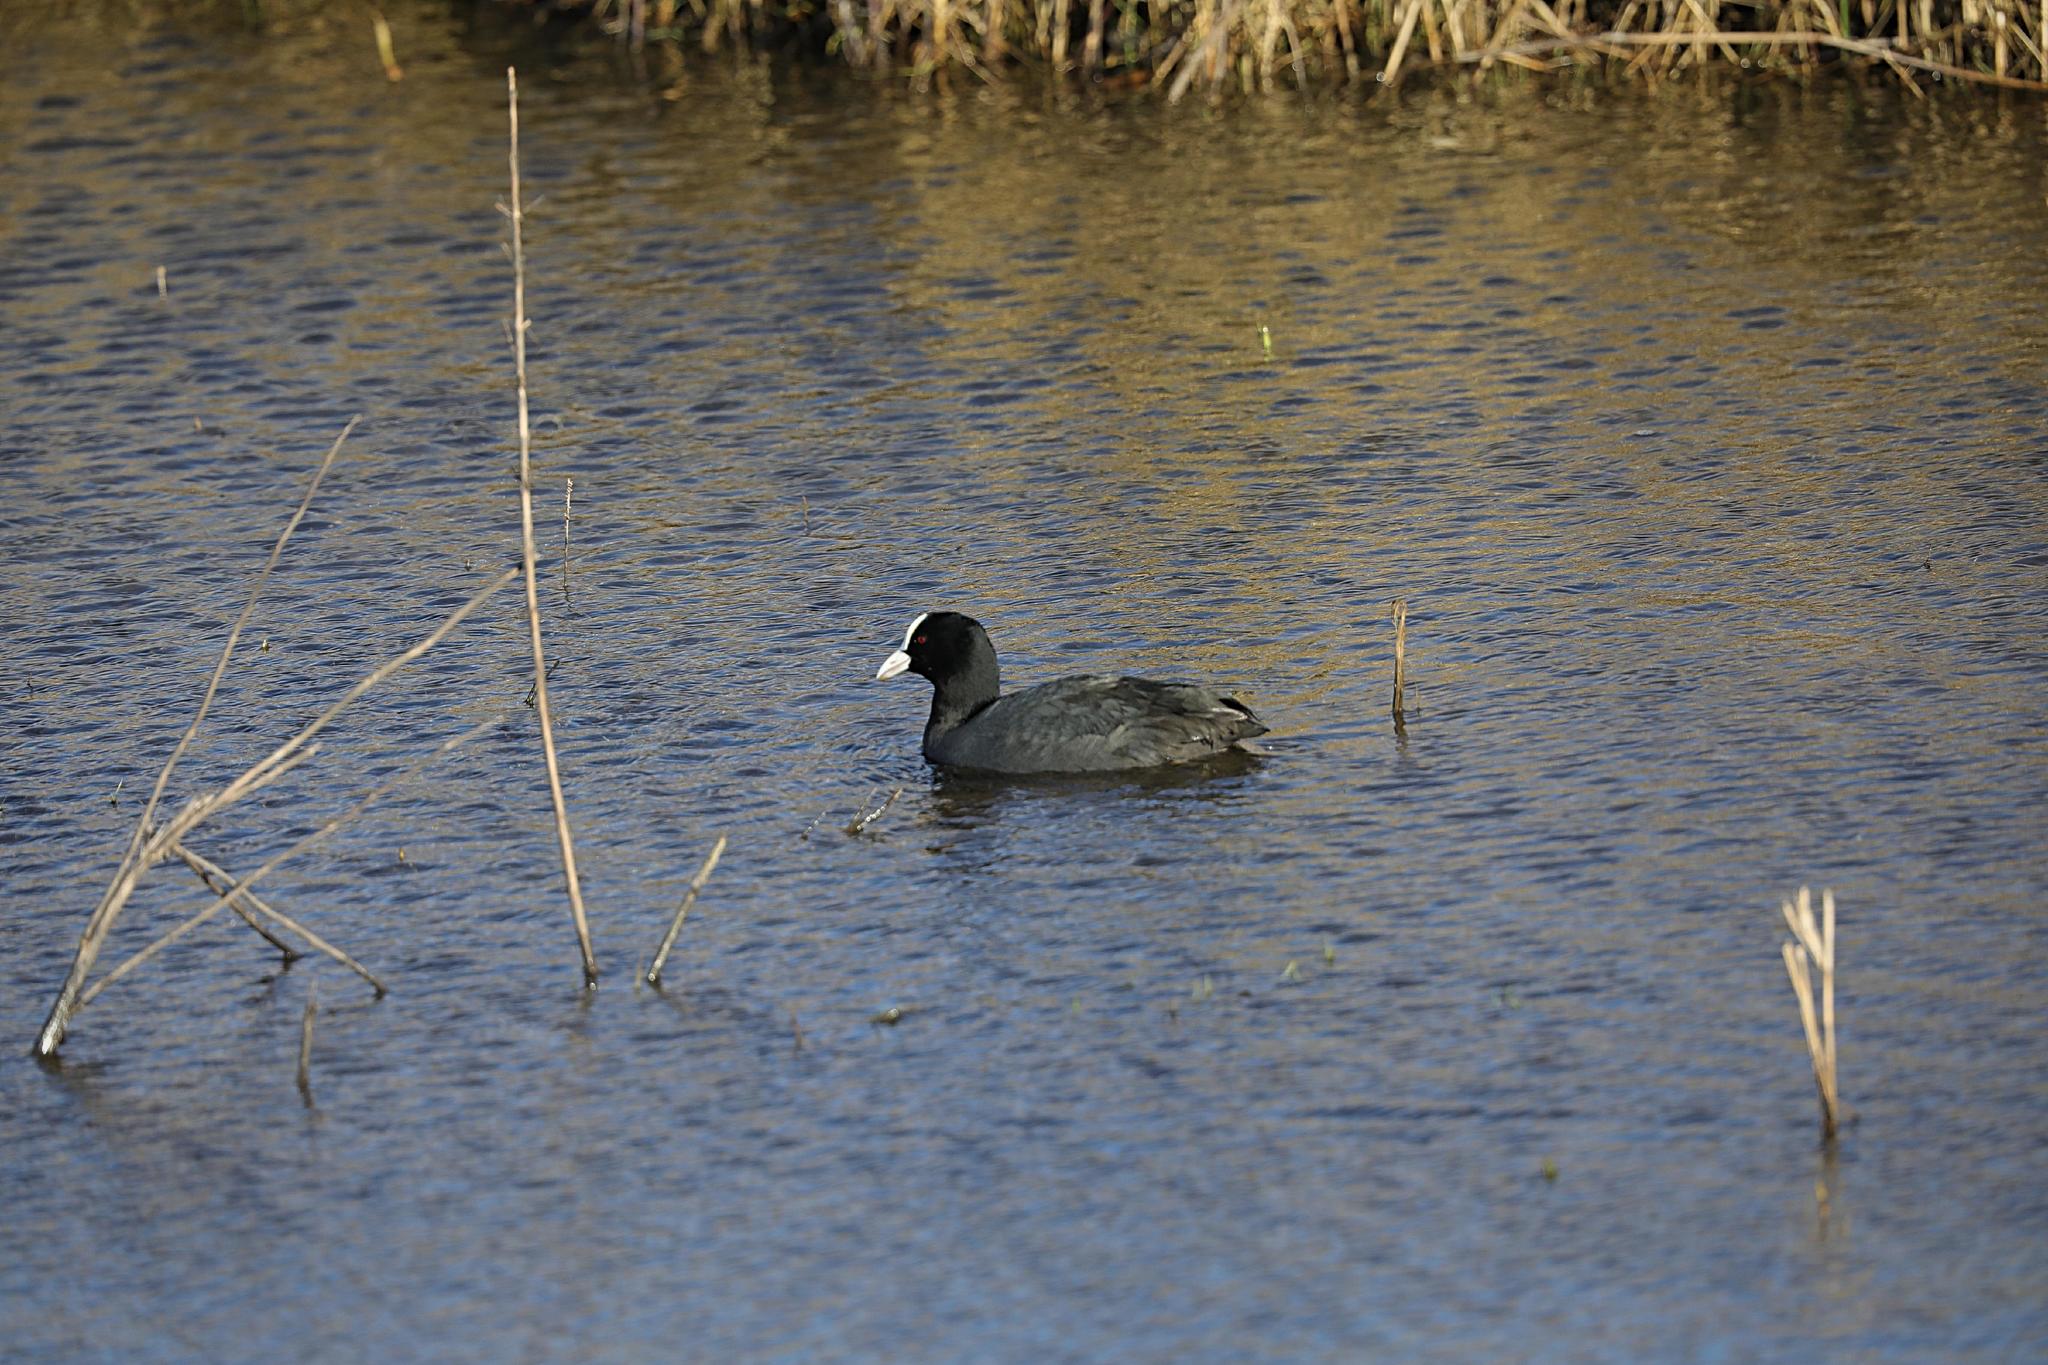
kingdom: Animalia
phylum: Chordata
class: Aves
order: Gruiformes
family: Rallidae
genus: Fulica
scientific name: Fulica atra
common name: Eurasian coot
